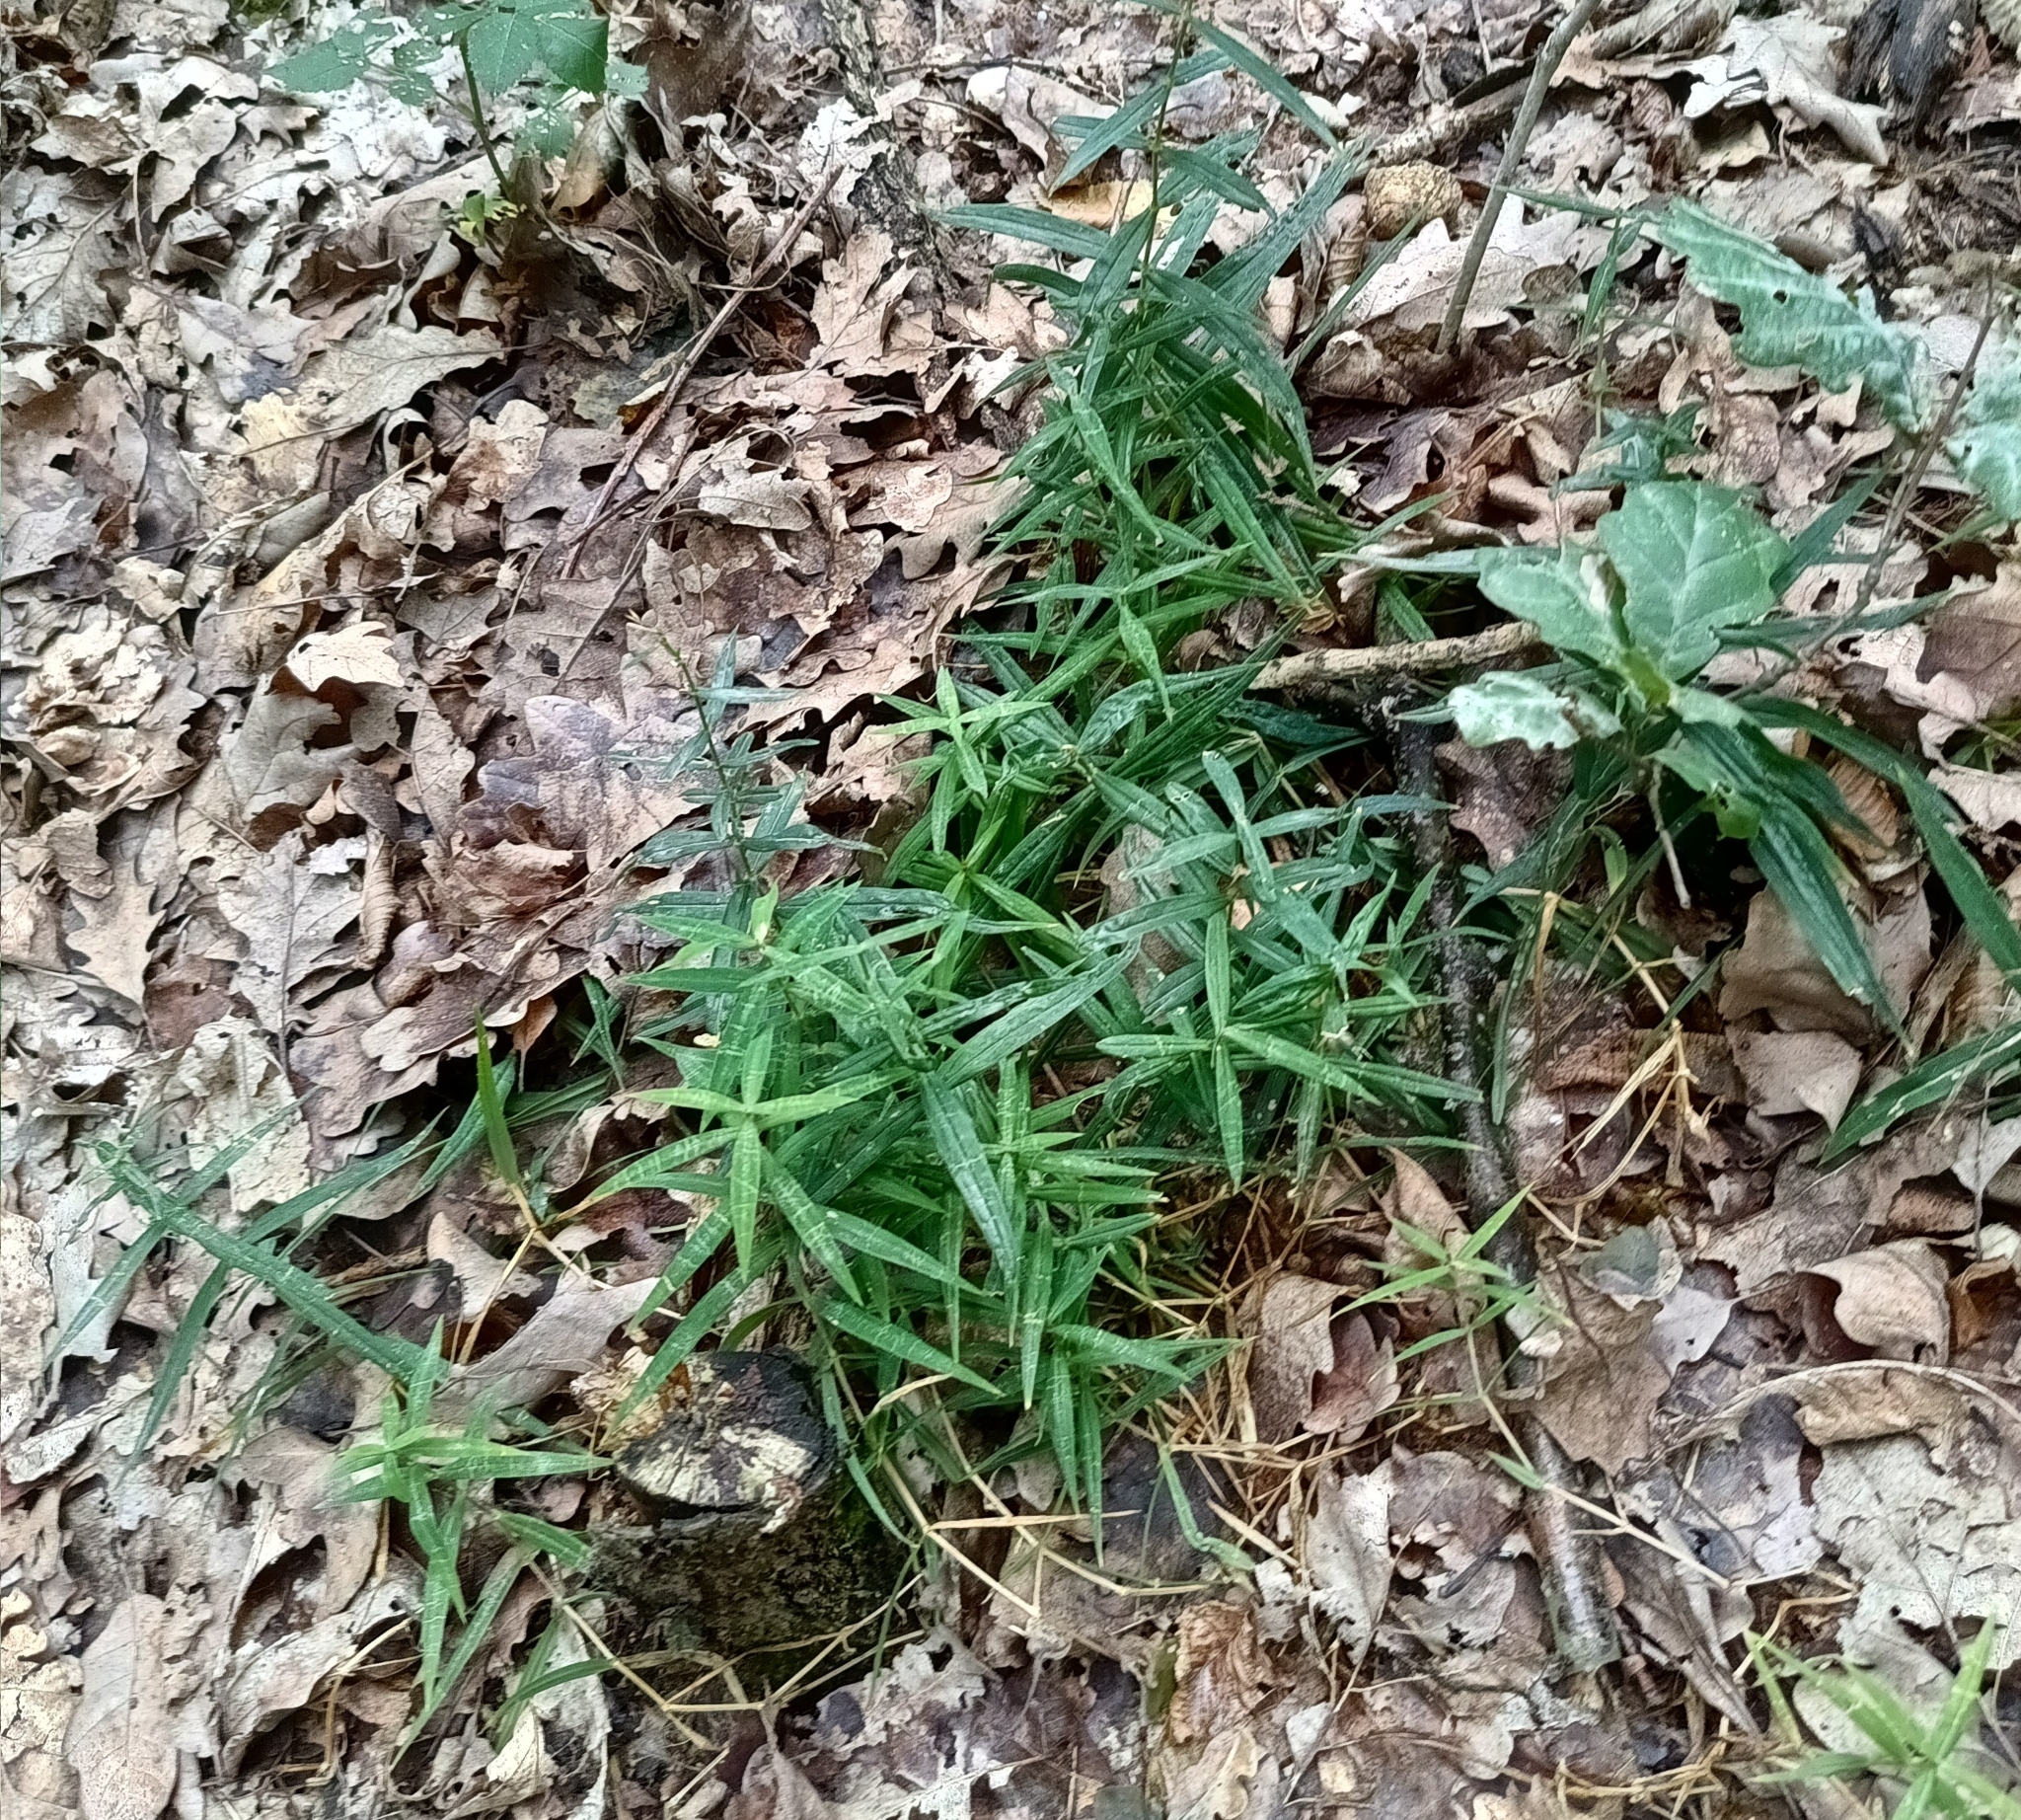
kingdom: Plantae
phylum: Tracheophyta
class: Magnoliopsida
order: Caryophyllales
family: Caryophyllaceae
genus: Rabelera
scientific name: Rabelera holostea
